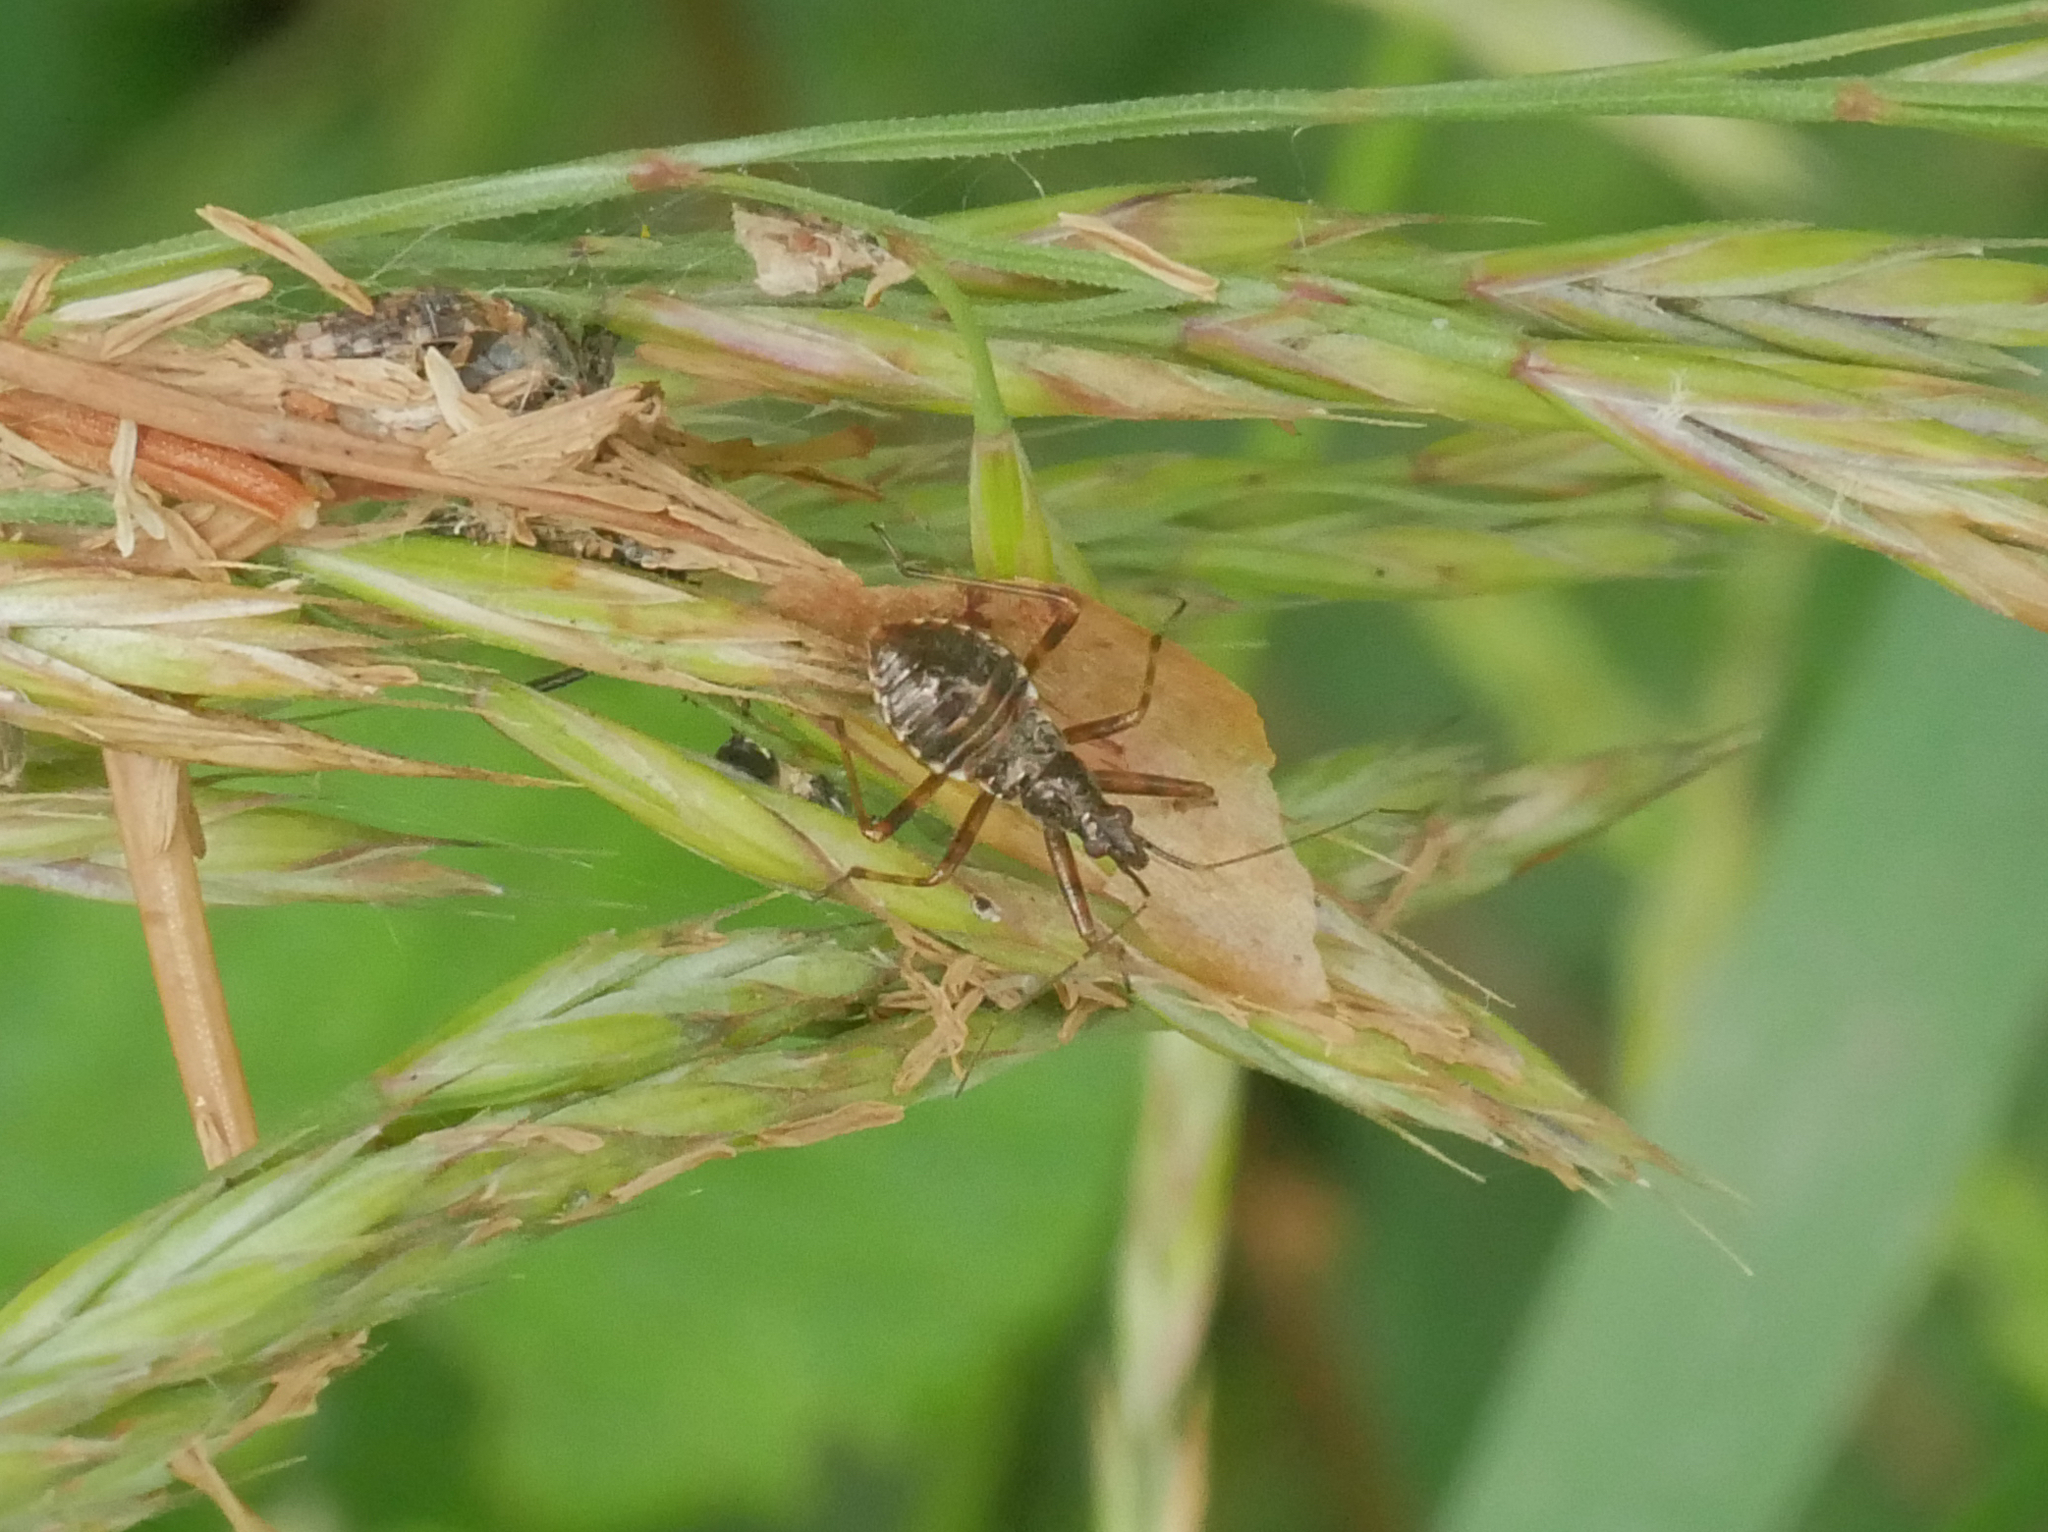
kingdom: Animalia
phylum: Arthropoda
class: Insecta
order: Hemiptera
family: Nabidae
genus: Himacerus
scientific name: Himacerus apterus
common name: Tree damsel bug
